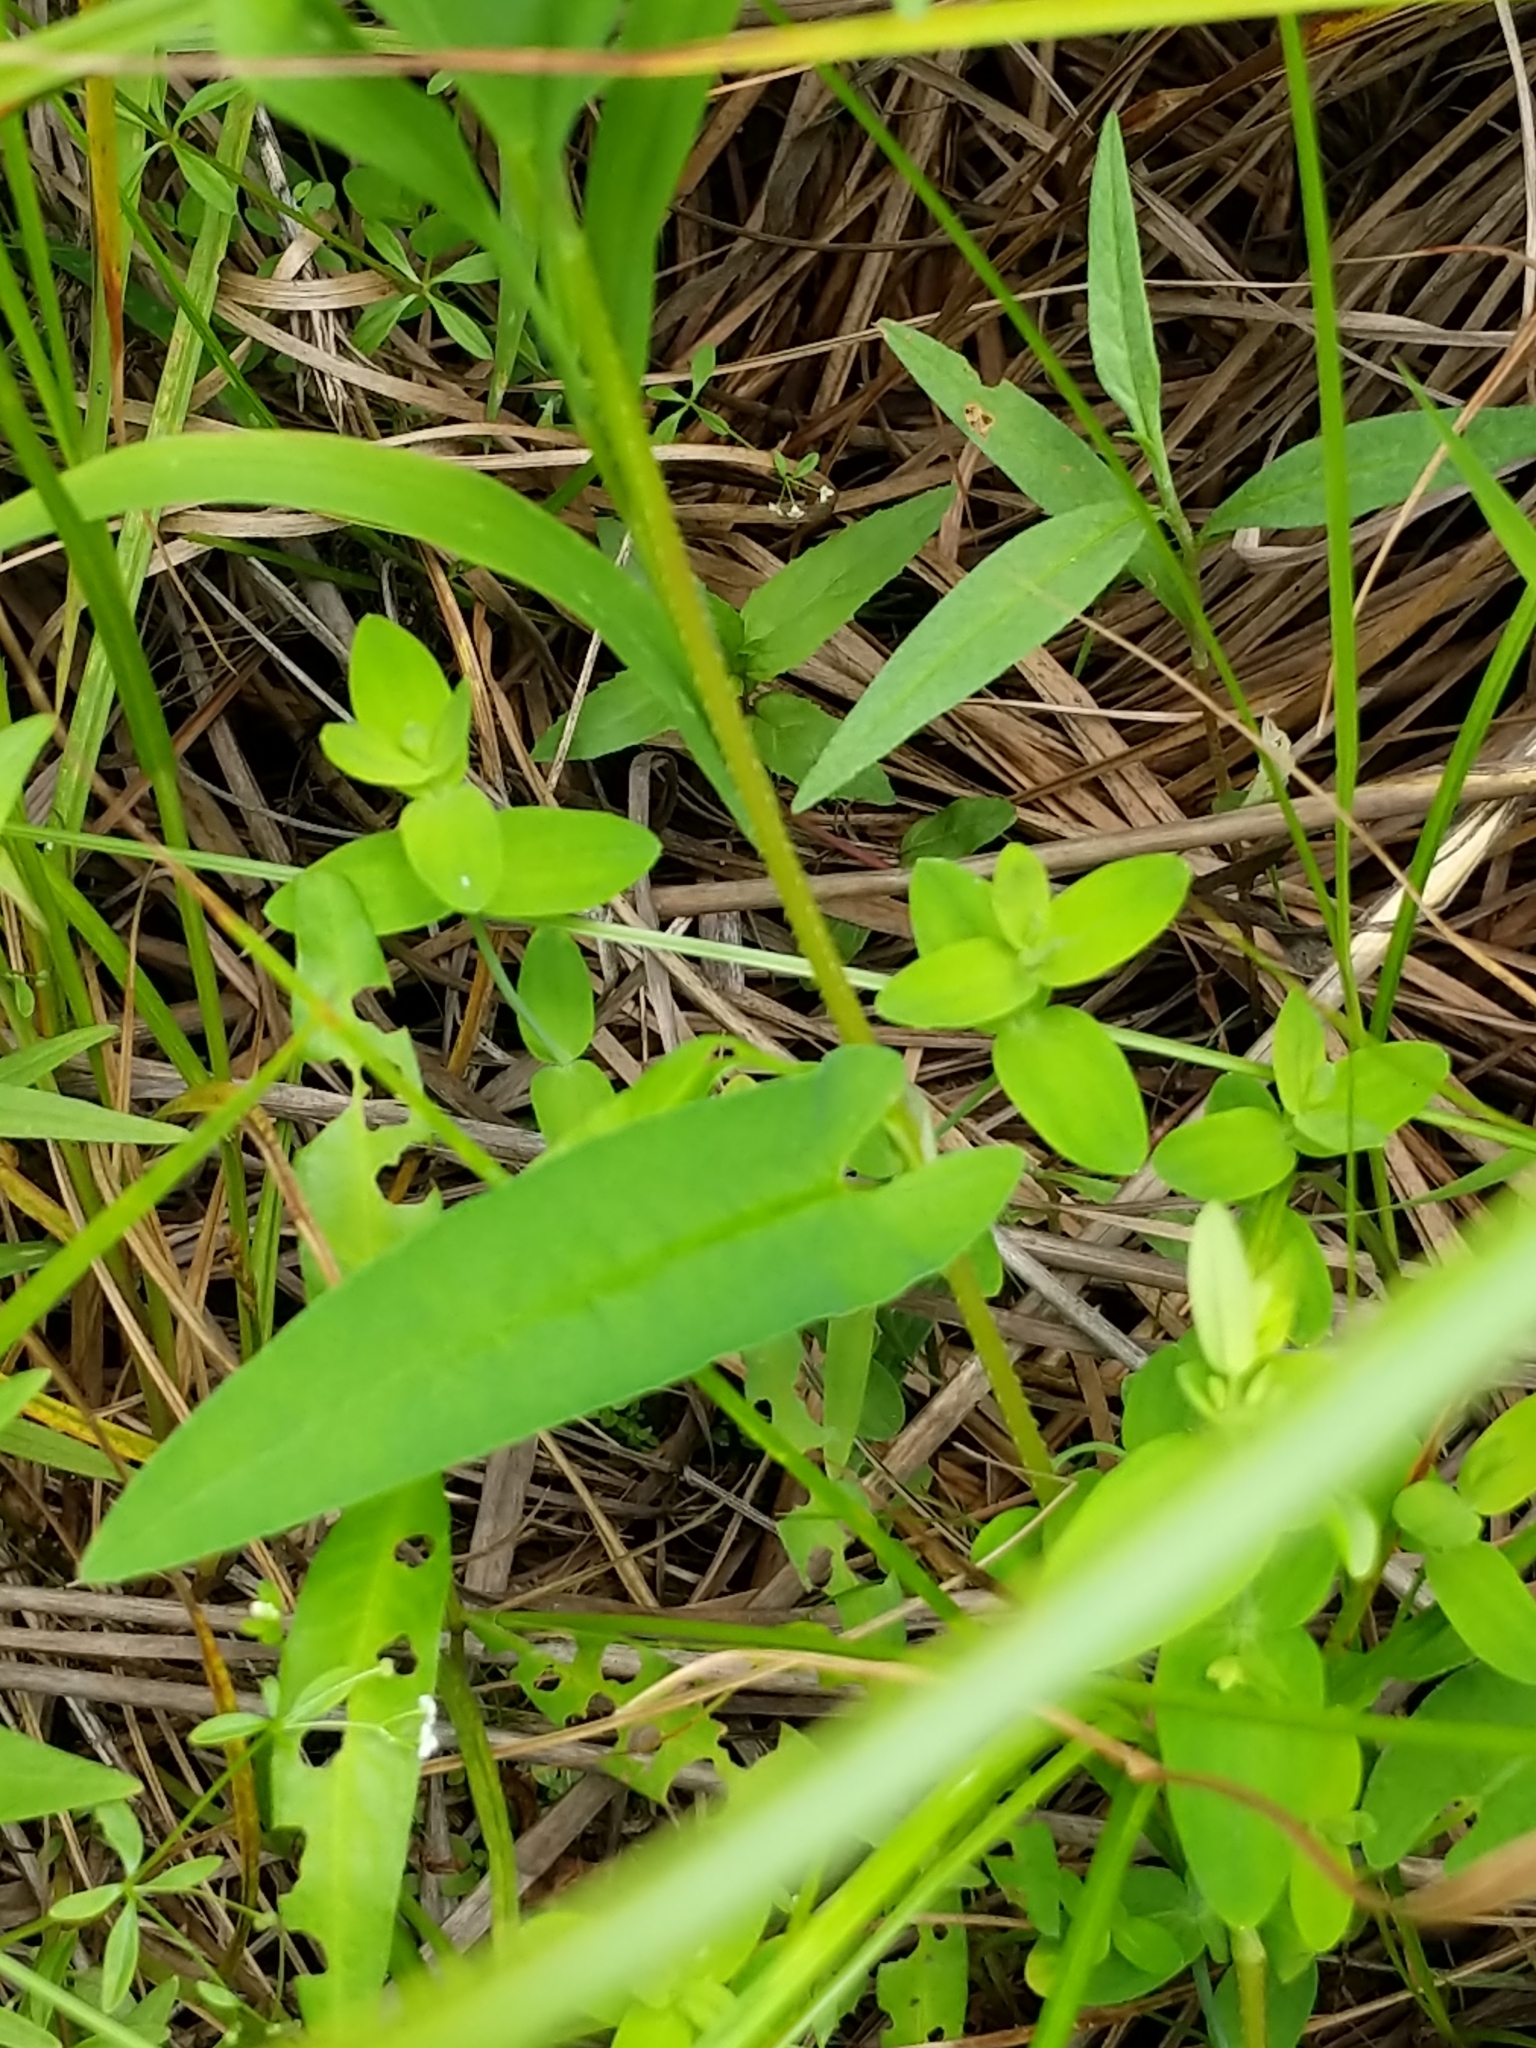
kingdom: Plantae
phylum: Tracheophyta
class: Magnoliopsida
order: Caryophyllales
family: Polygonaceae
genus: Persicaria
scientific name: Persicaria sagittata
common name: American tearthumb
